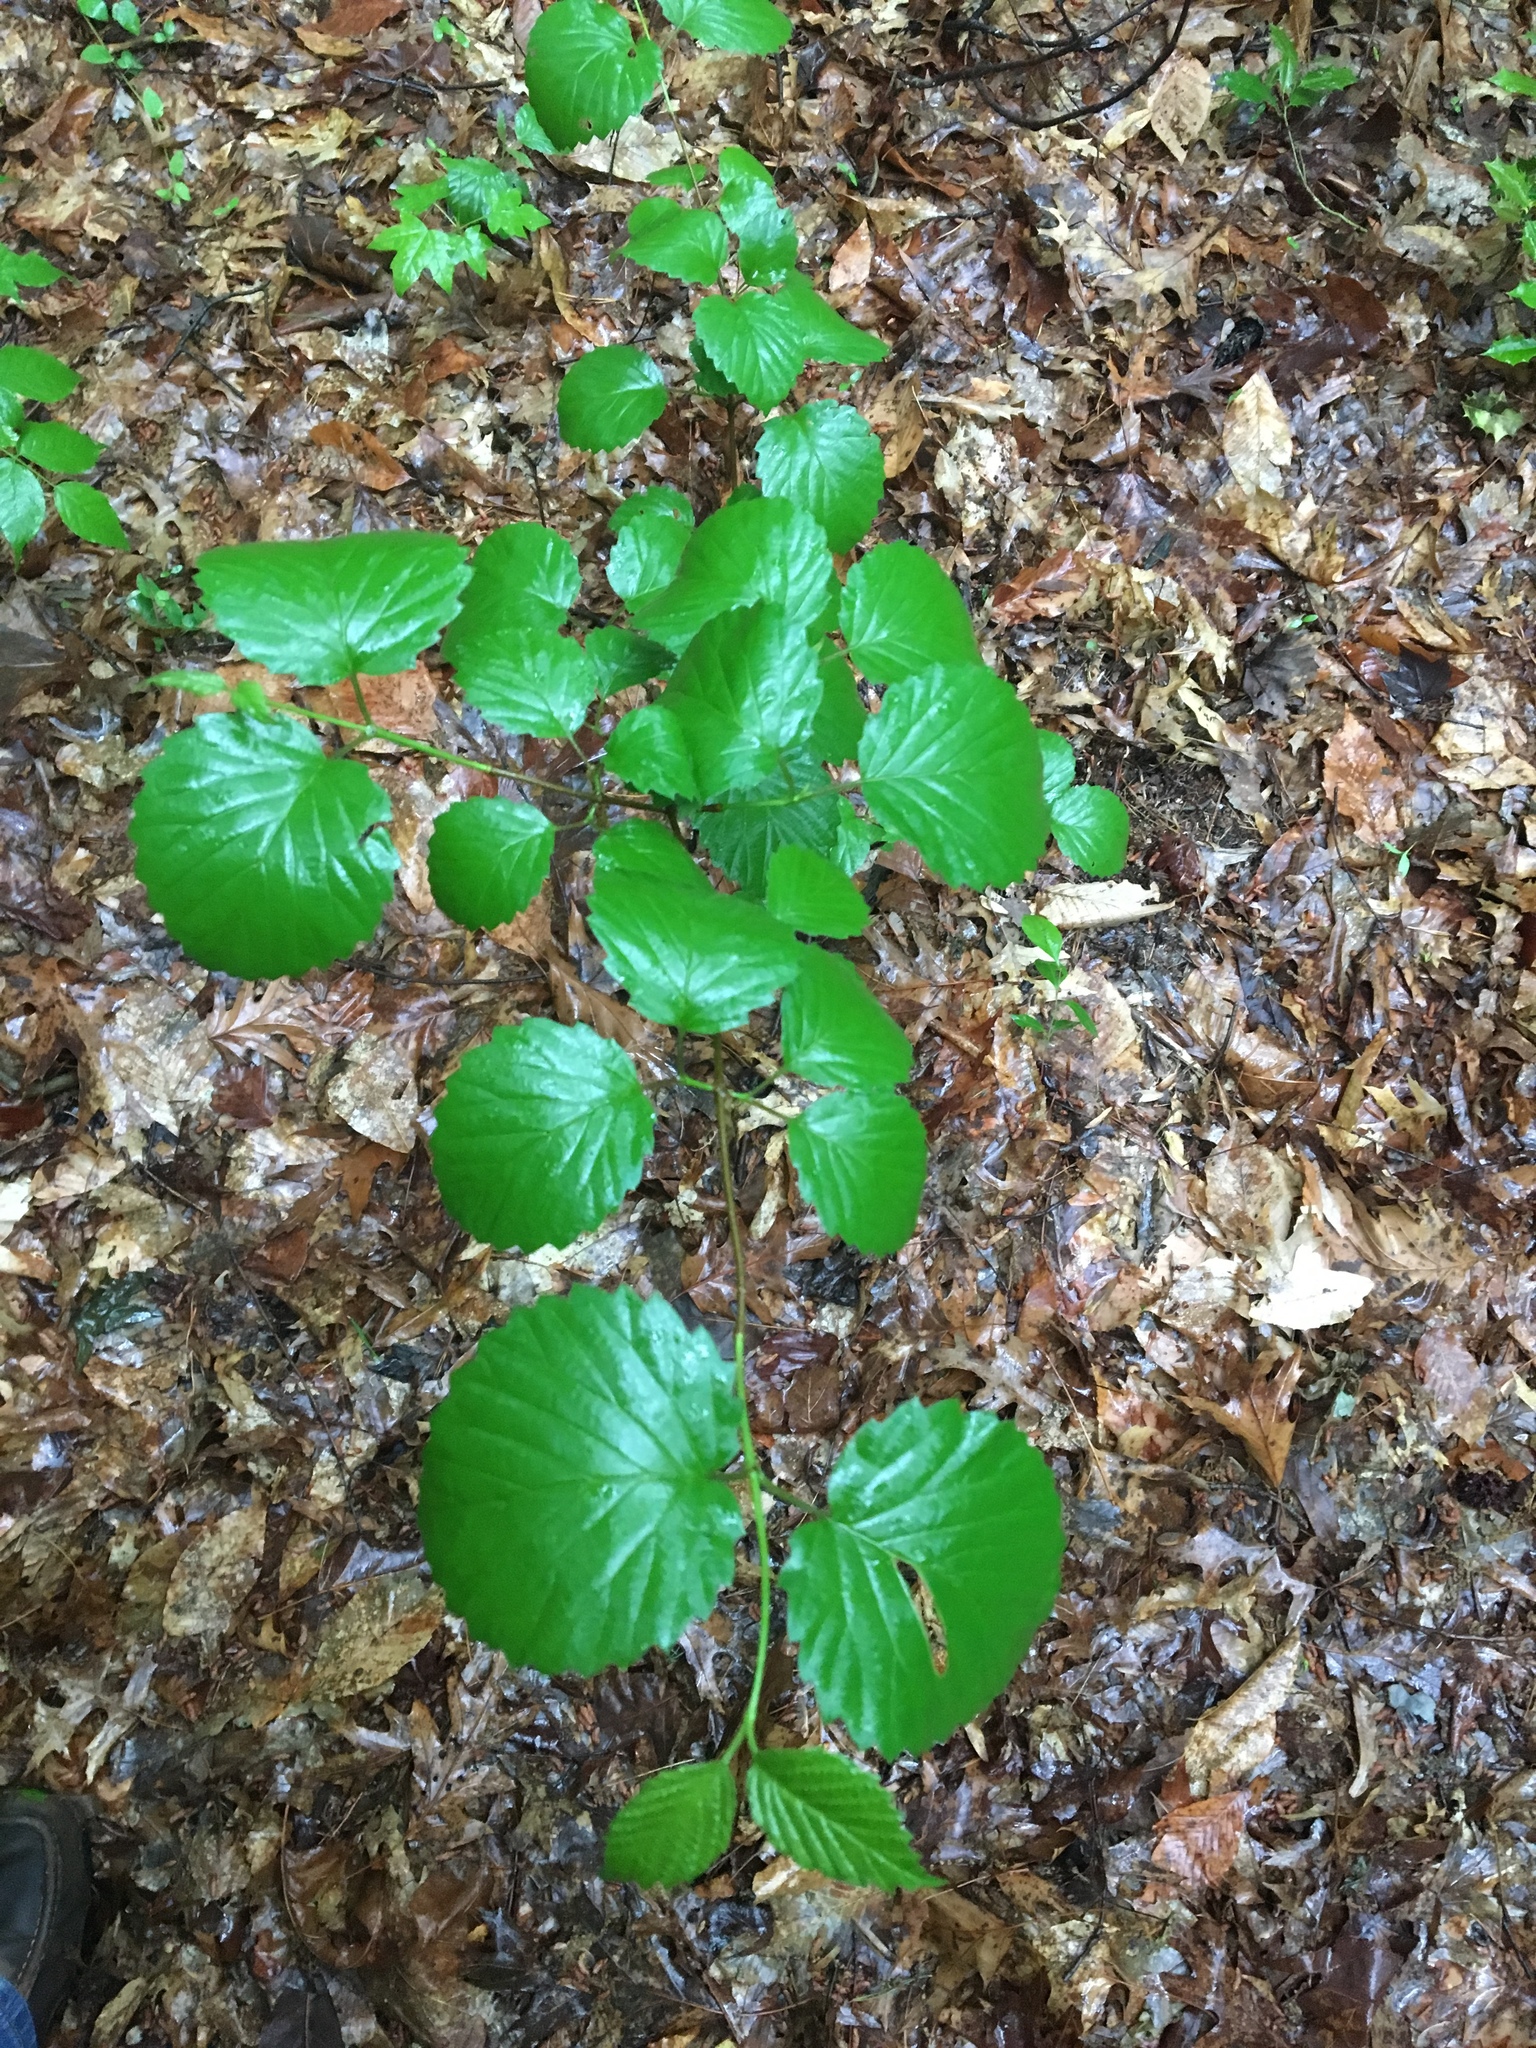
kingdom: Plantae
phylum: Tracheophyta
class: Magnoliopsida
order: Saxifragales
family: Hamamelidaceae
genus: Hamamelis
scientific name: Hamamelis virginiana
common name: Witch-hazel
